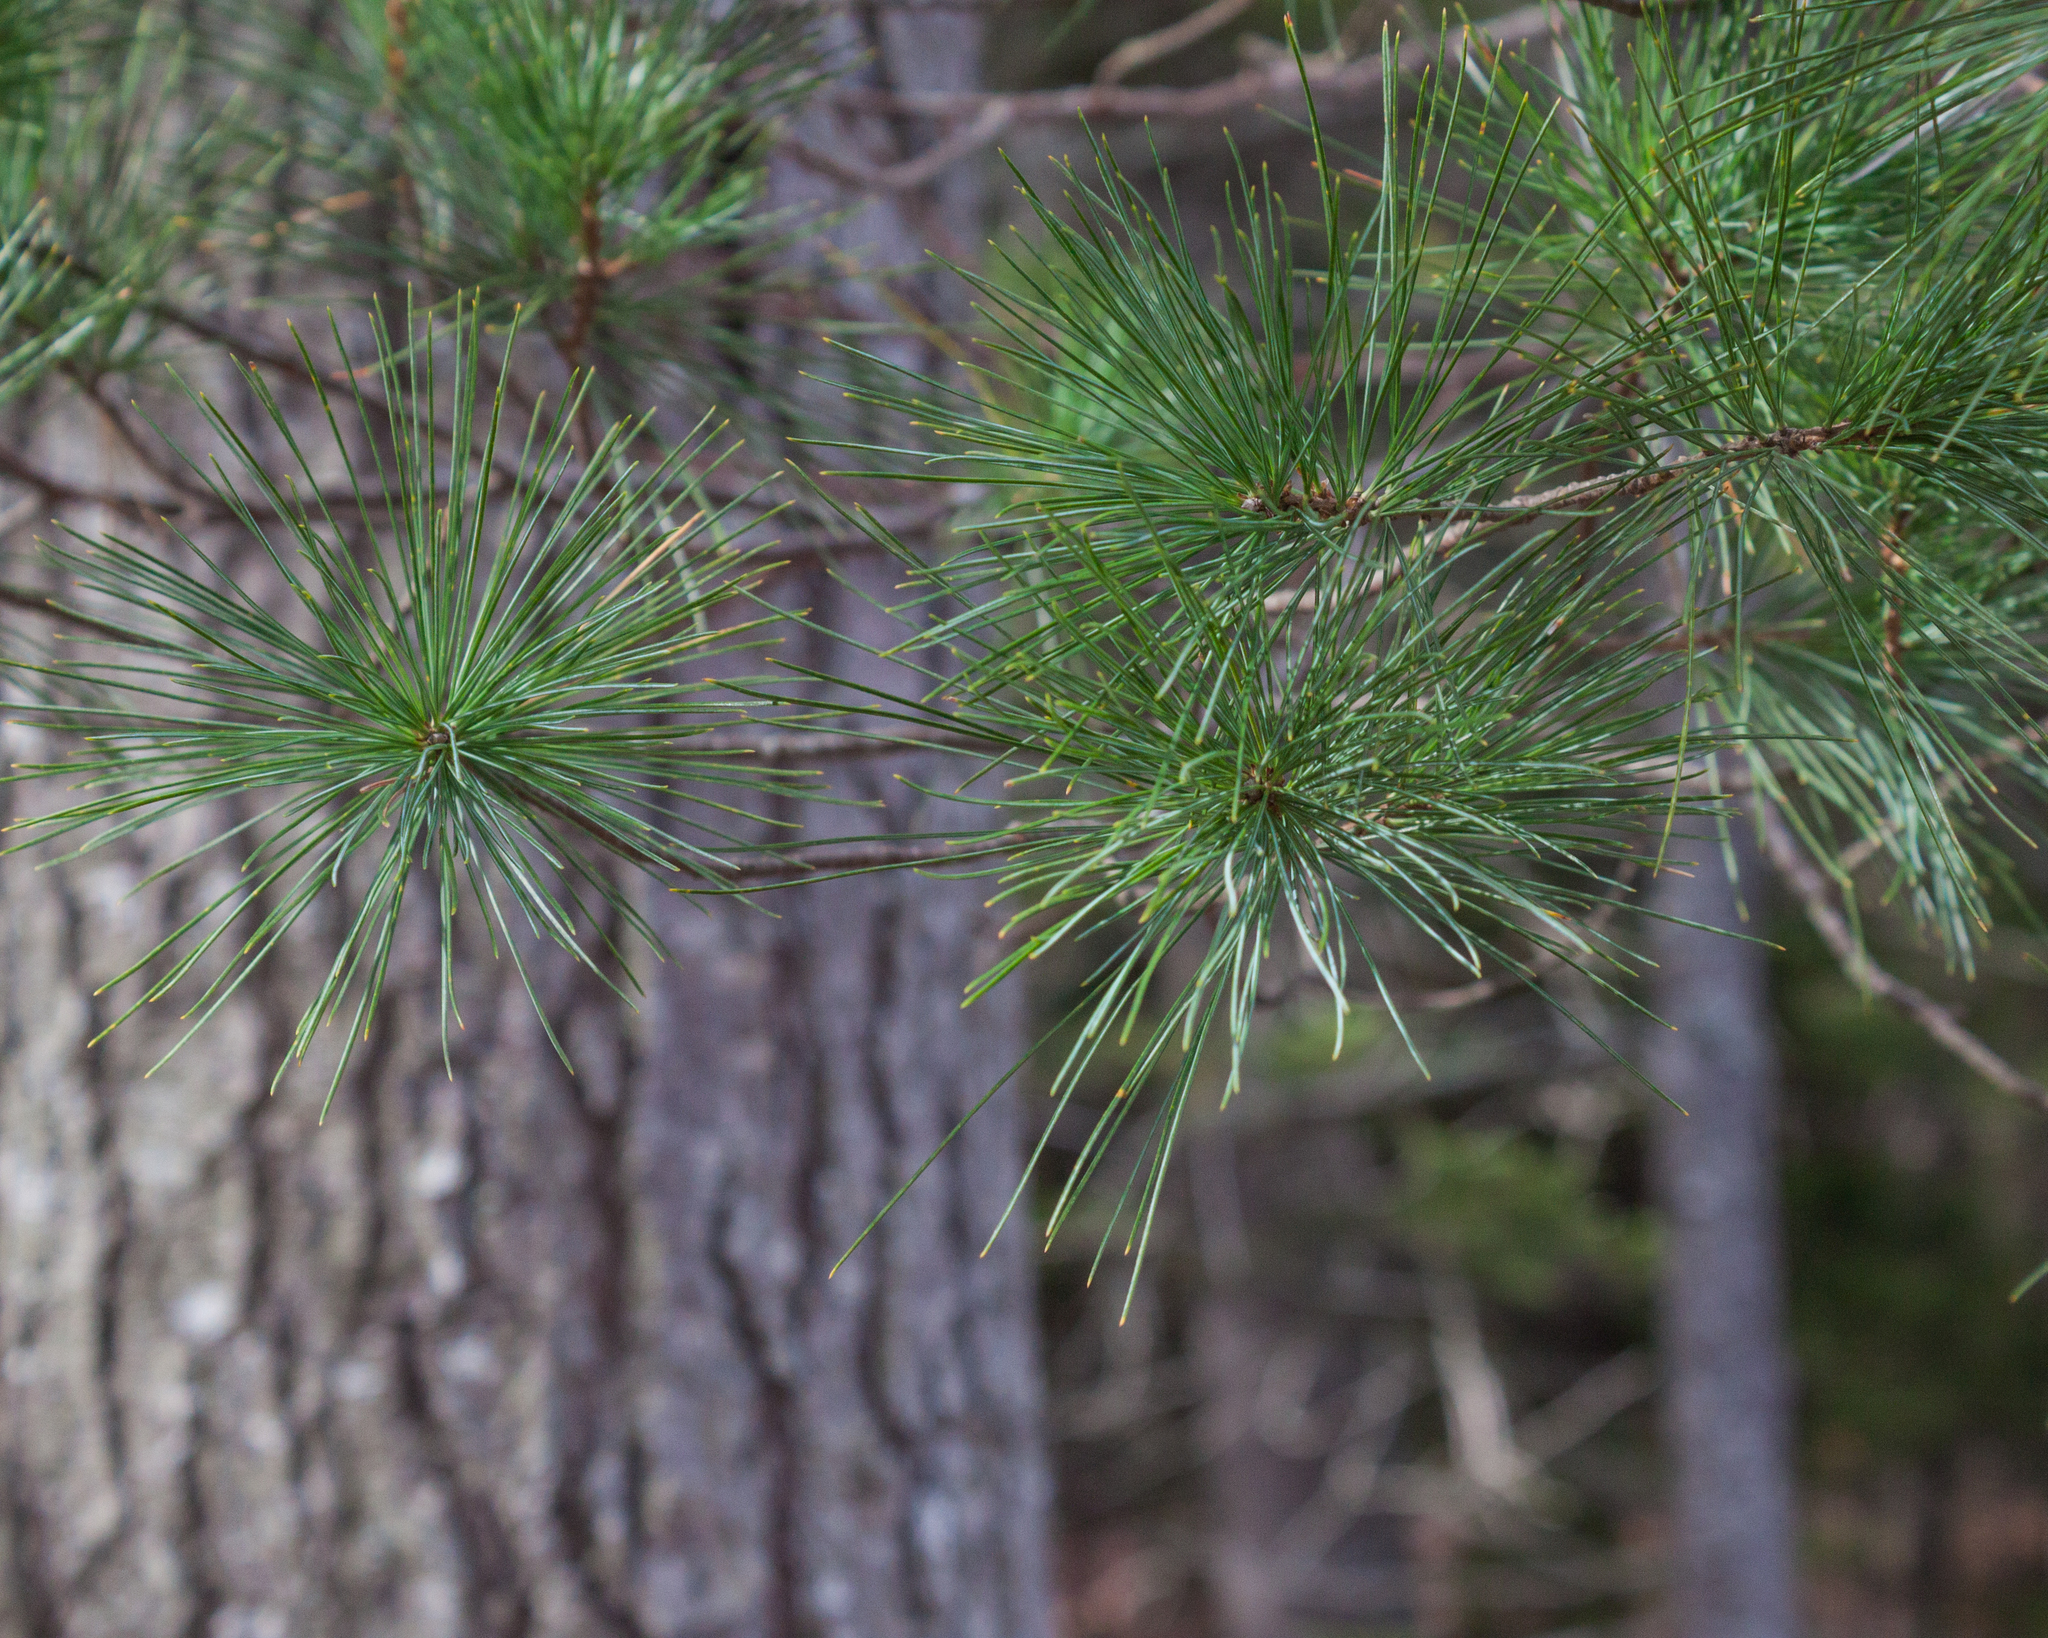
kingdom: Plantae
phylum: Tracheophyta
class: Pinopsida
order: Pinales
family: Pinaceae
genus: Pinus
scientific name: Pinus strobus
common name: Weymouth pine
